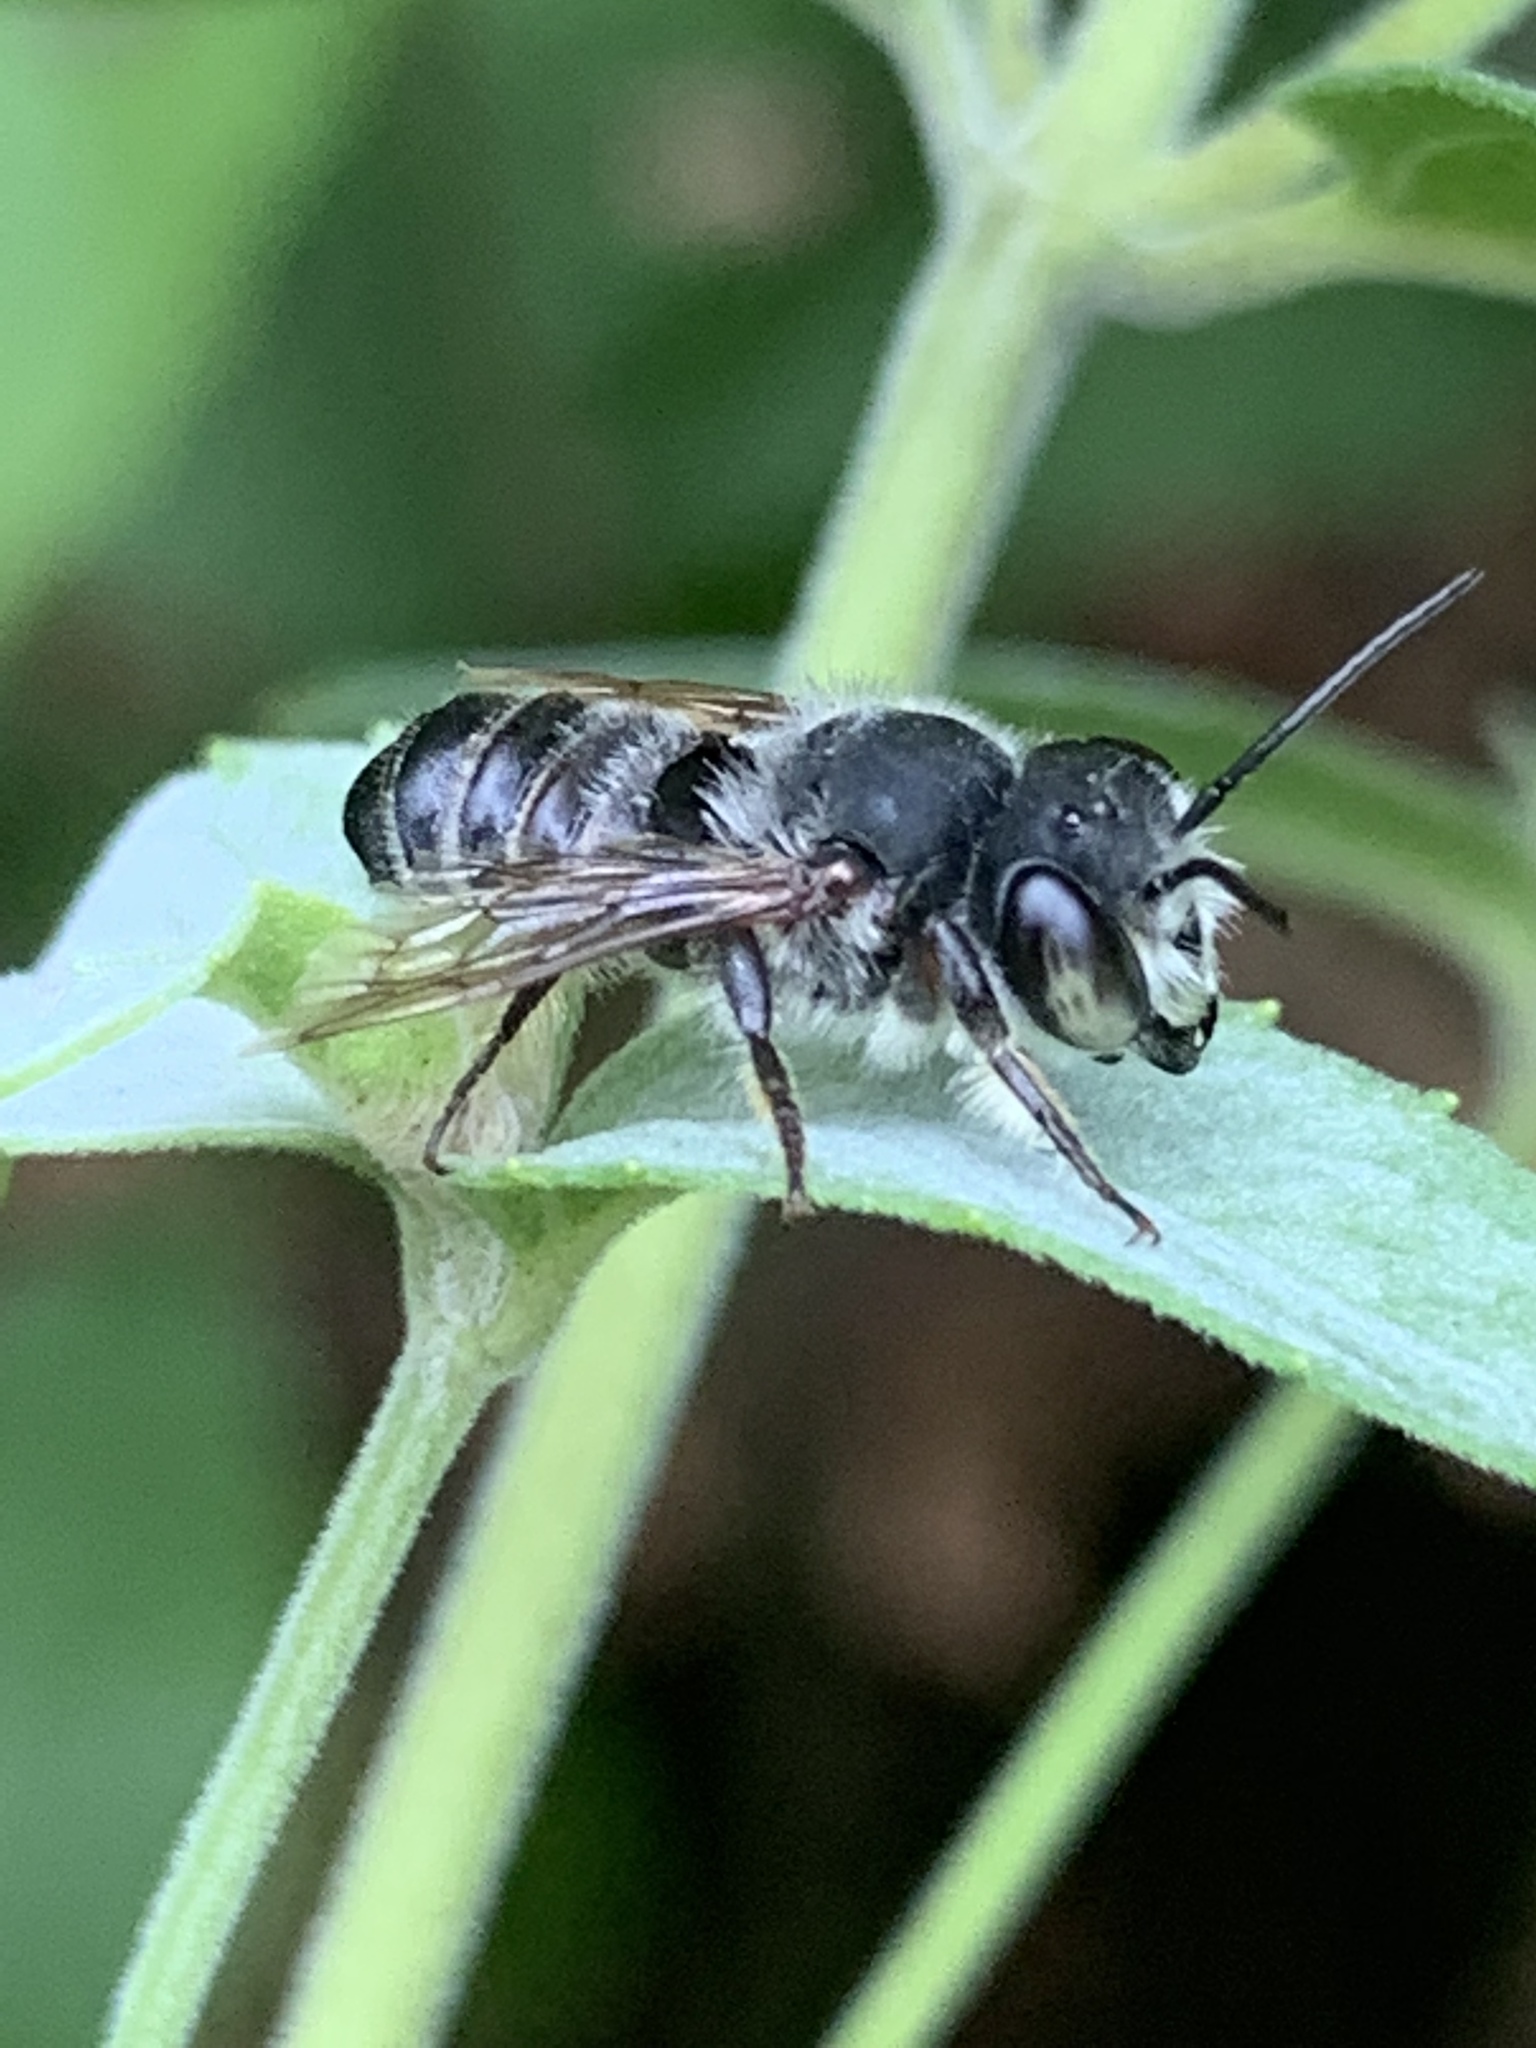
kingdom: Animalia
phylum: Arthropoda
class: Insecta
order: Hymenoptera
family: Megachilidae
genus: Megachile
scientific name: Megachile
